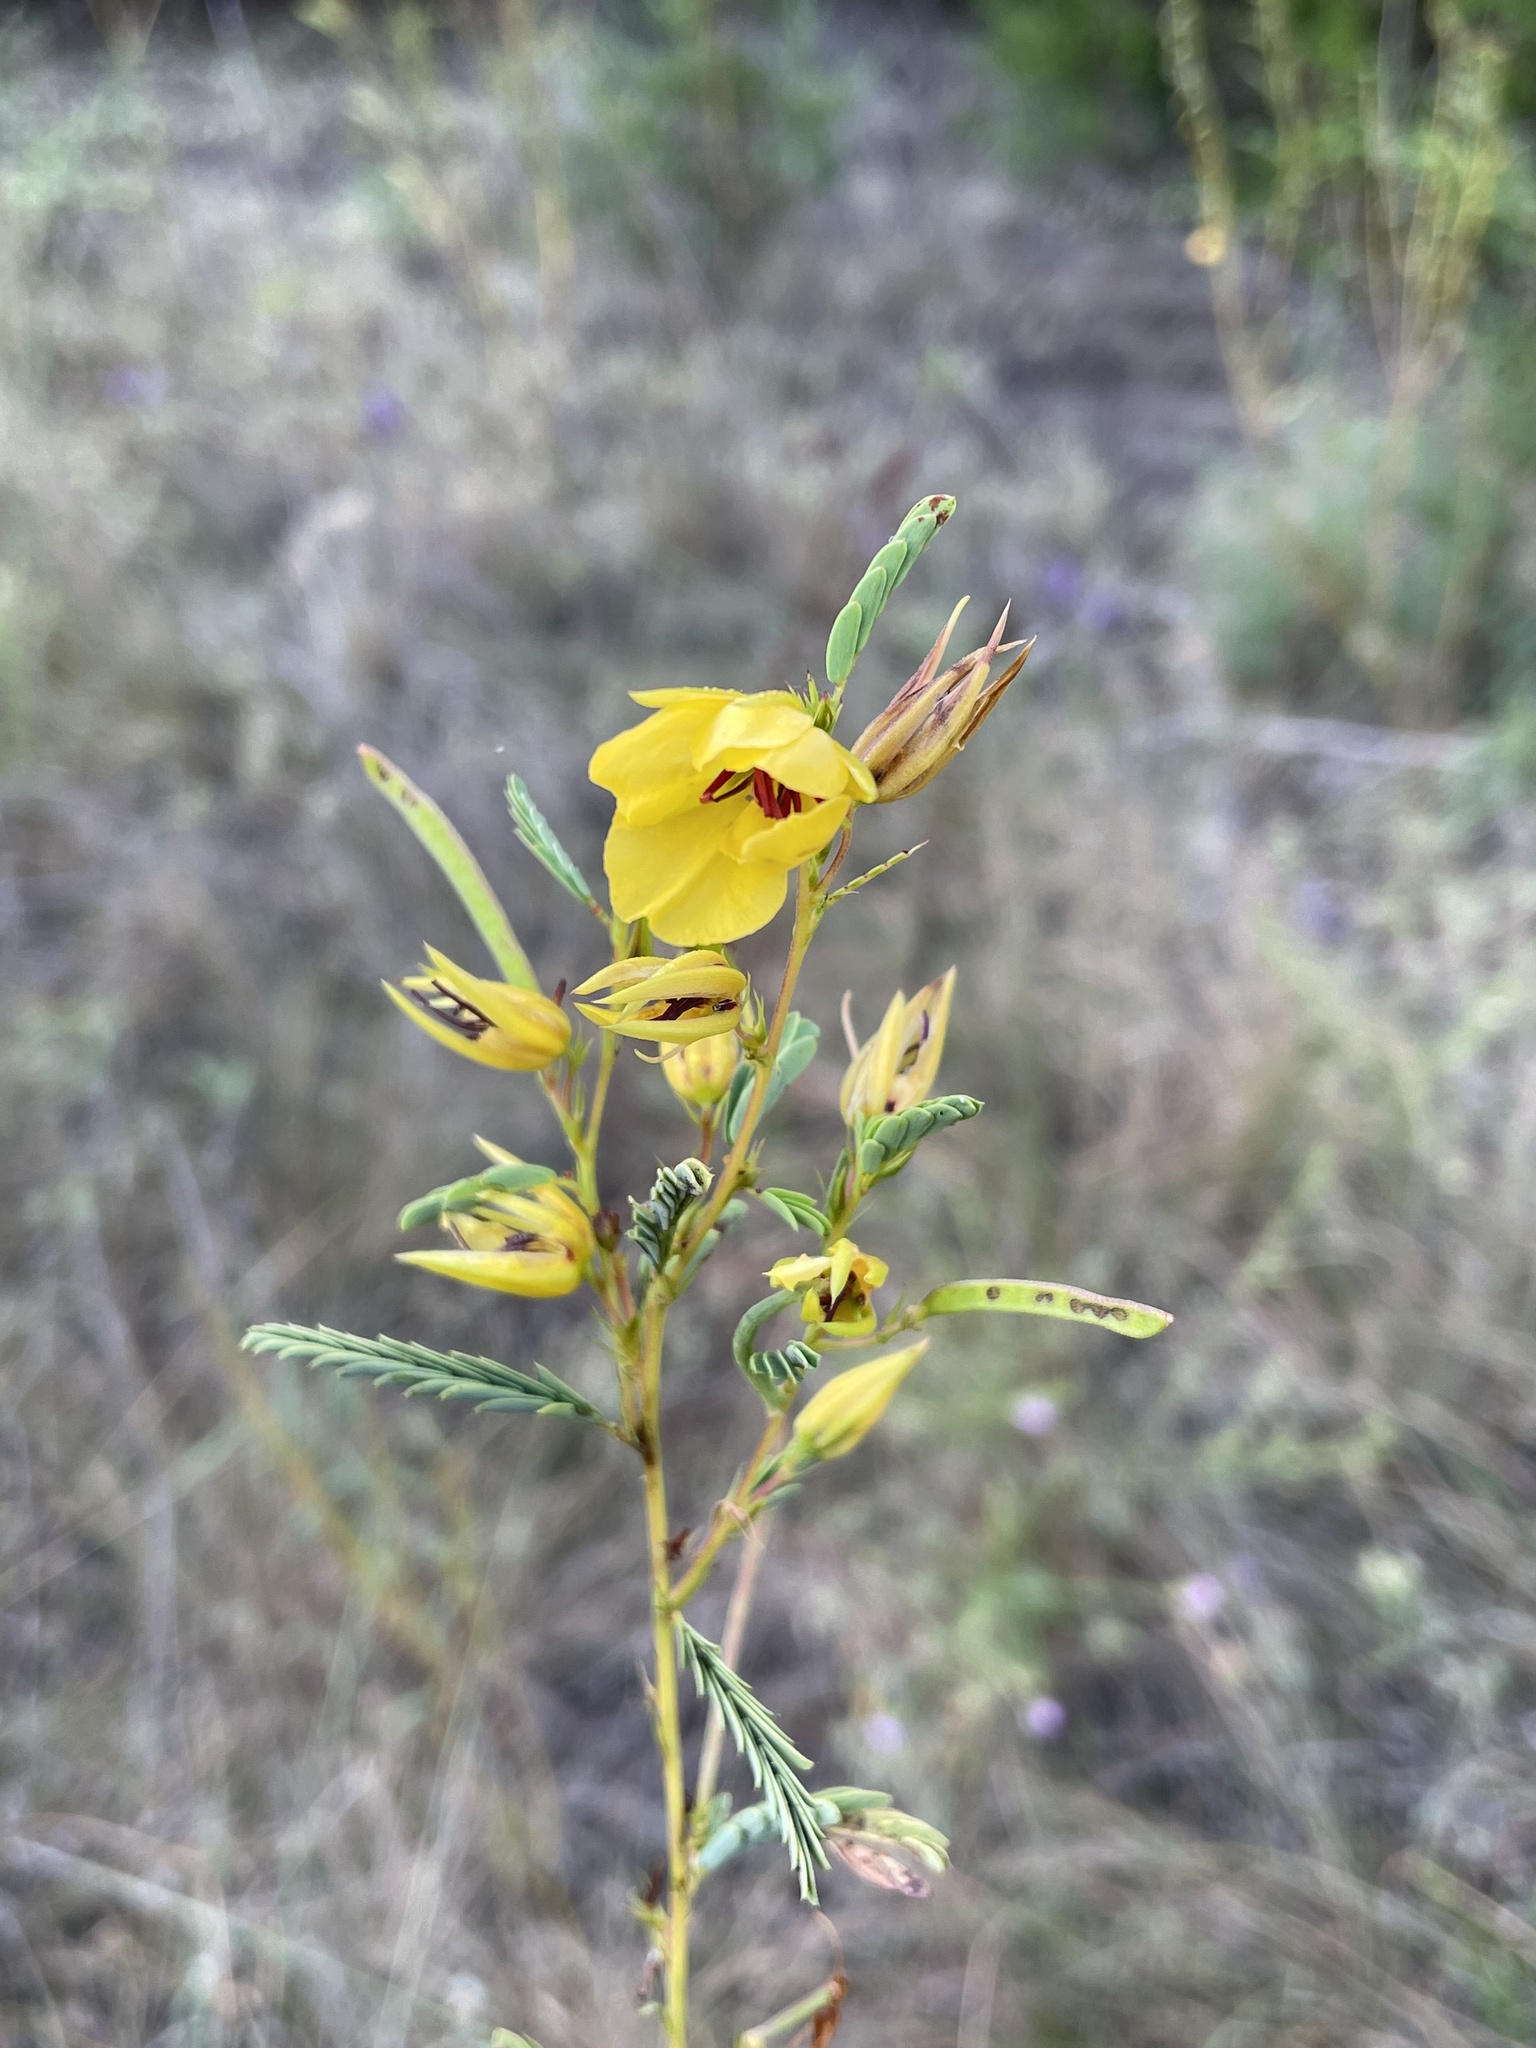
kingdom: Plantae
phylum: Tracheophyta
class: Magnoliopsida
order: Fabales
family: Fabaceae
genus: Chamaecrista
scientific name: Chamaecrista fasciculata
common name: Golden cassia
